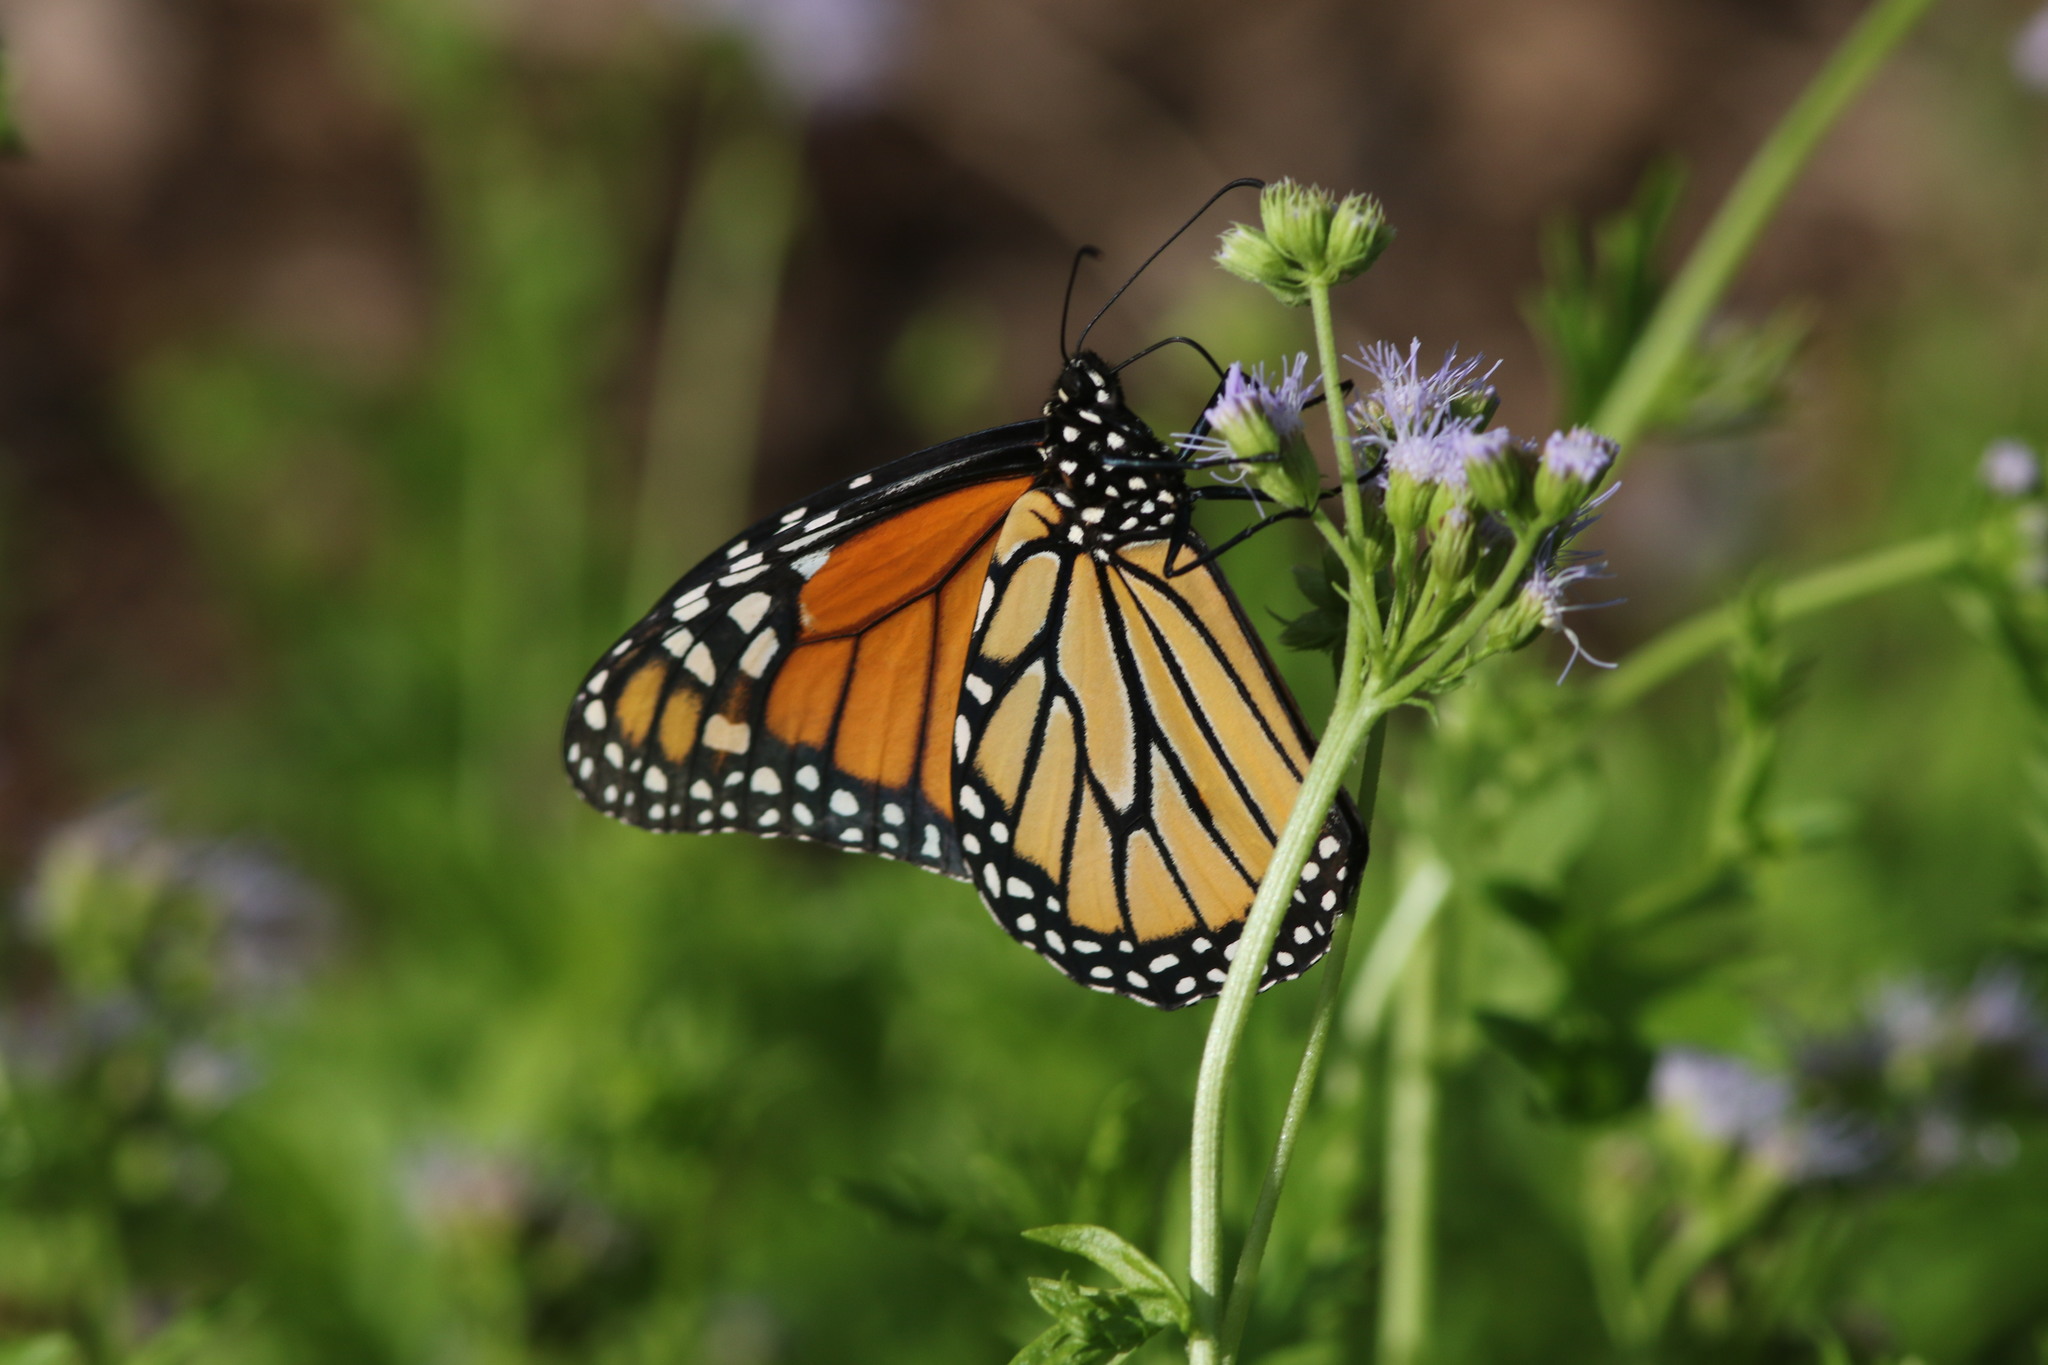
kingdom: Animalia
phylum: Arthropoda
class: Insecta
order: Lepidoptera
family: Nymphalidae
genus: Danaus
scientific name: Danaus plexippus
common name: Monarch
